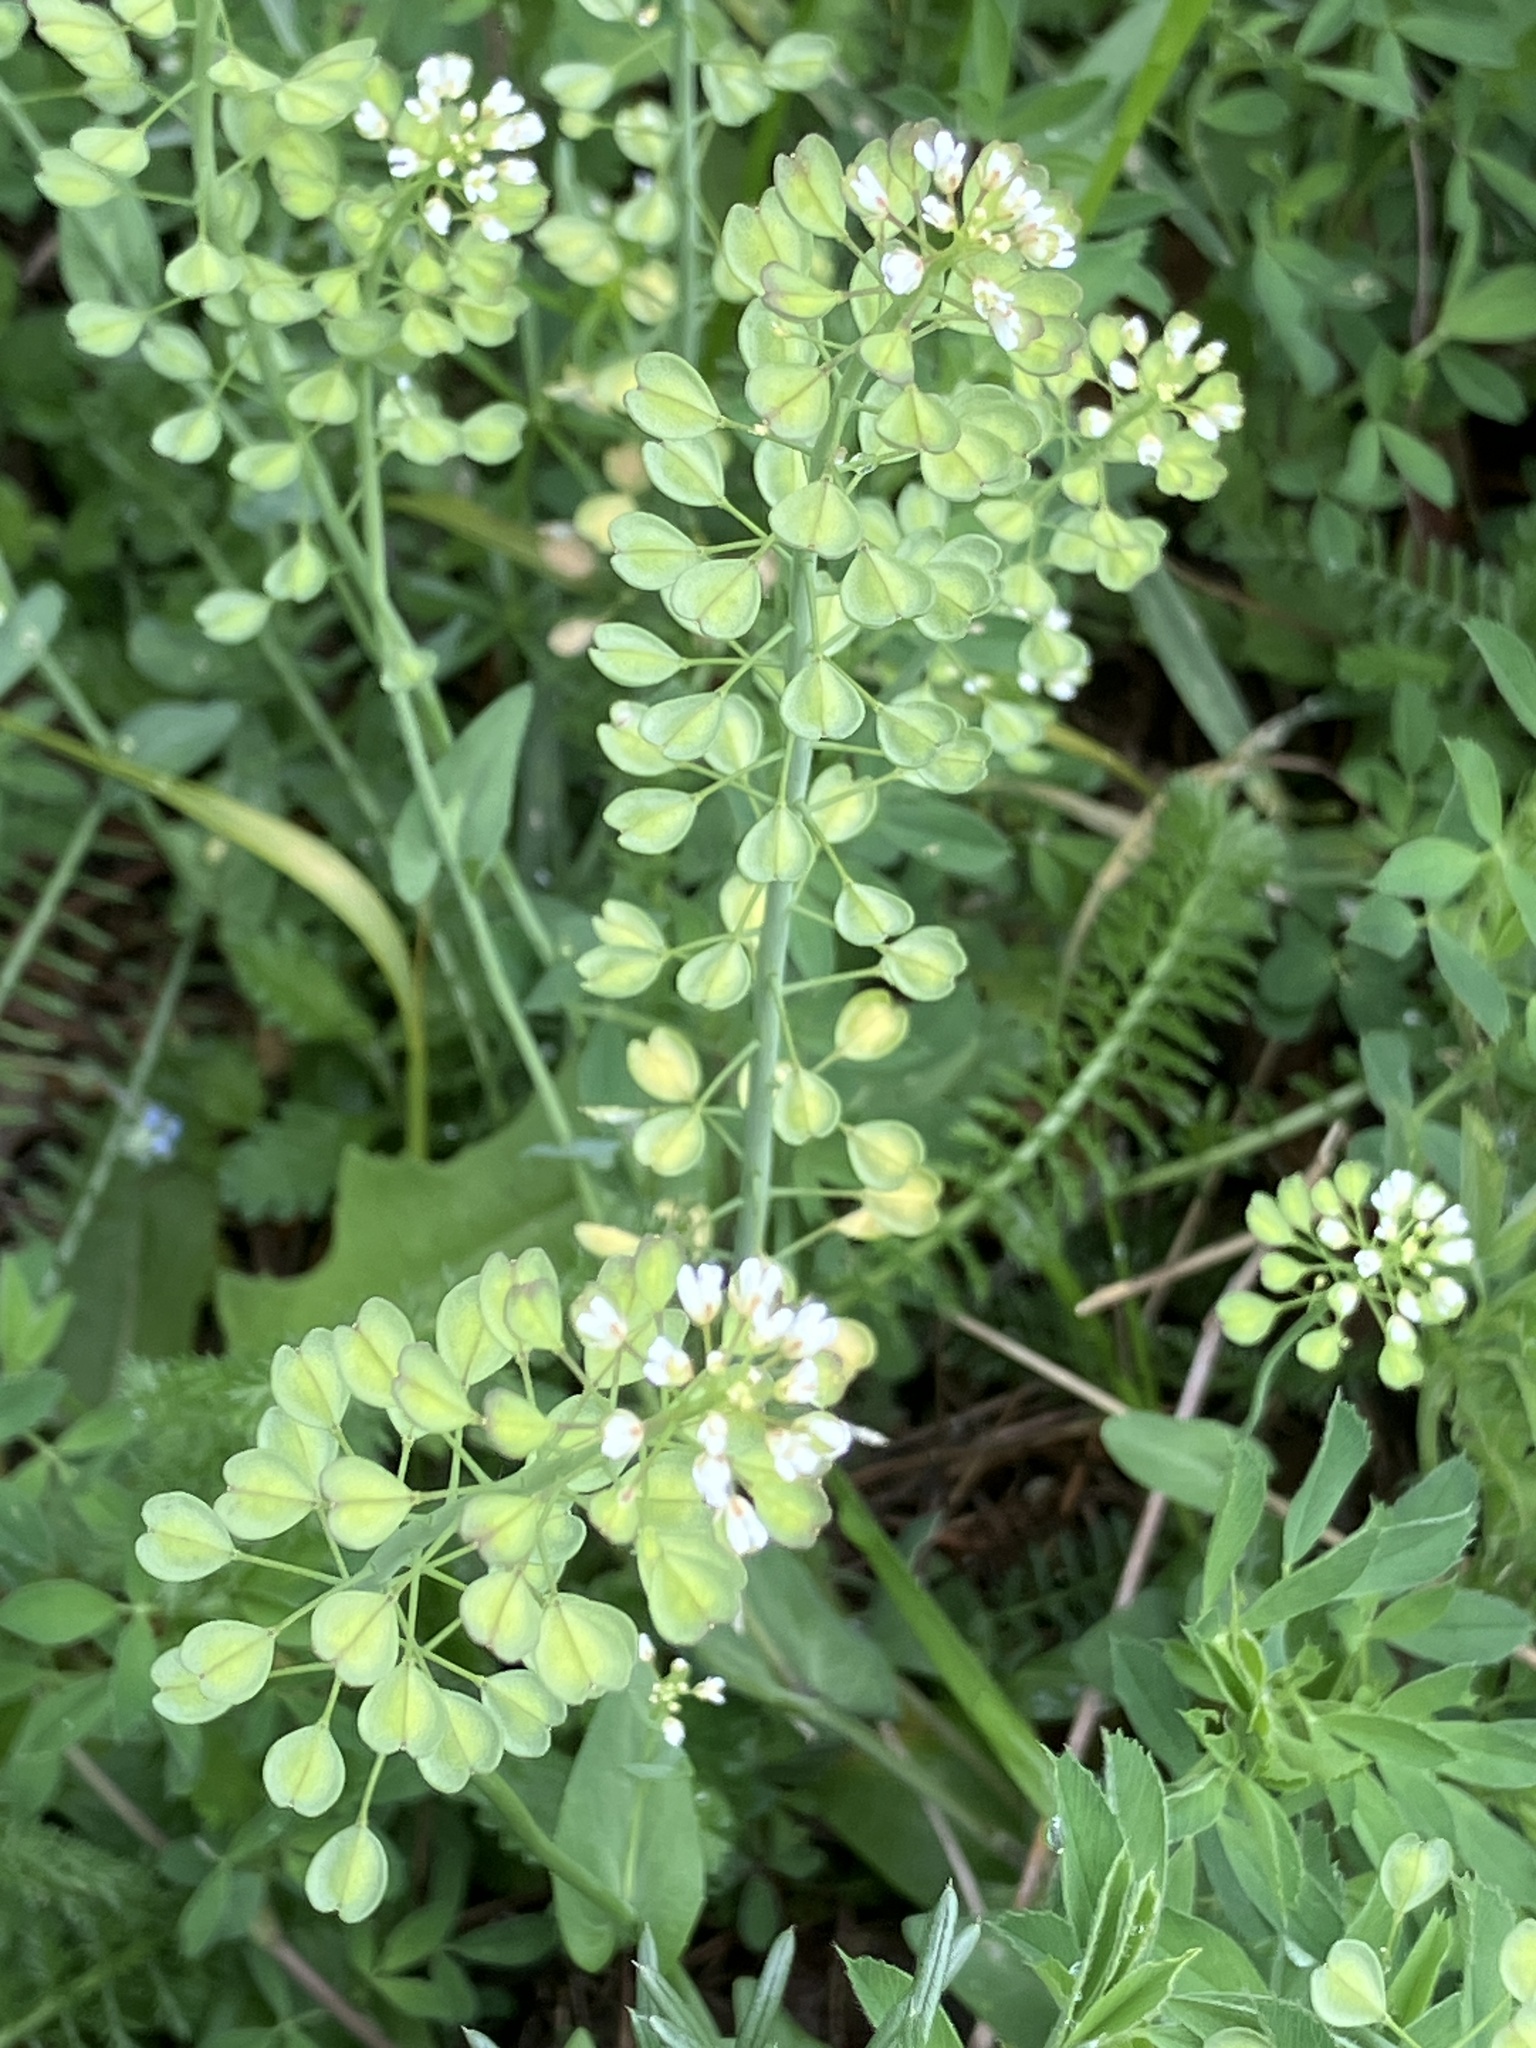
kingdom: Plantae
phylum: Tracheophyta
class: Magnoliopsida
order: Brassicales
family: Brassicaceae
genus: Noccaea
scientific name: Noccaea perfoliata
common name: Perfoliate pennycress
